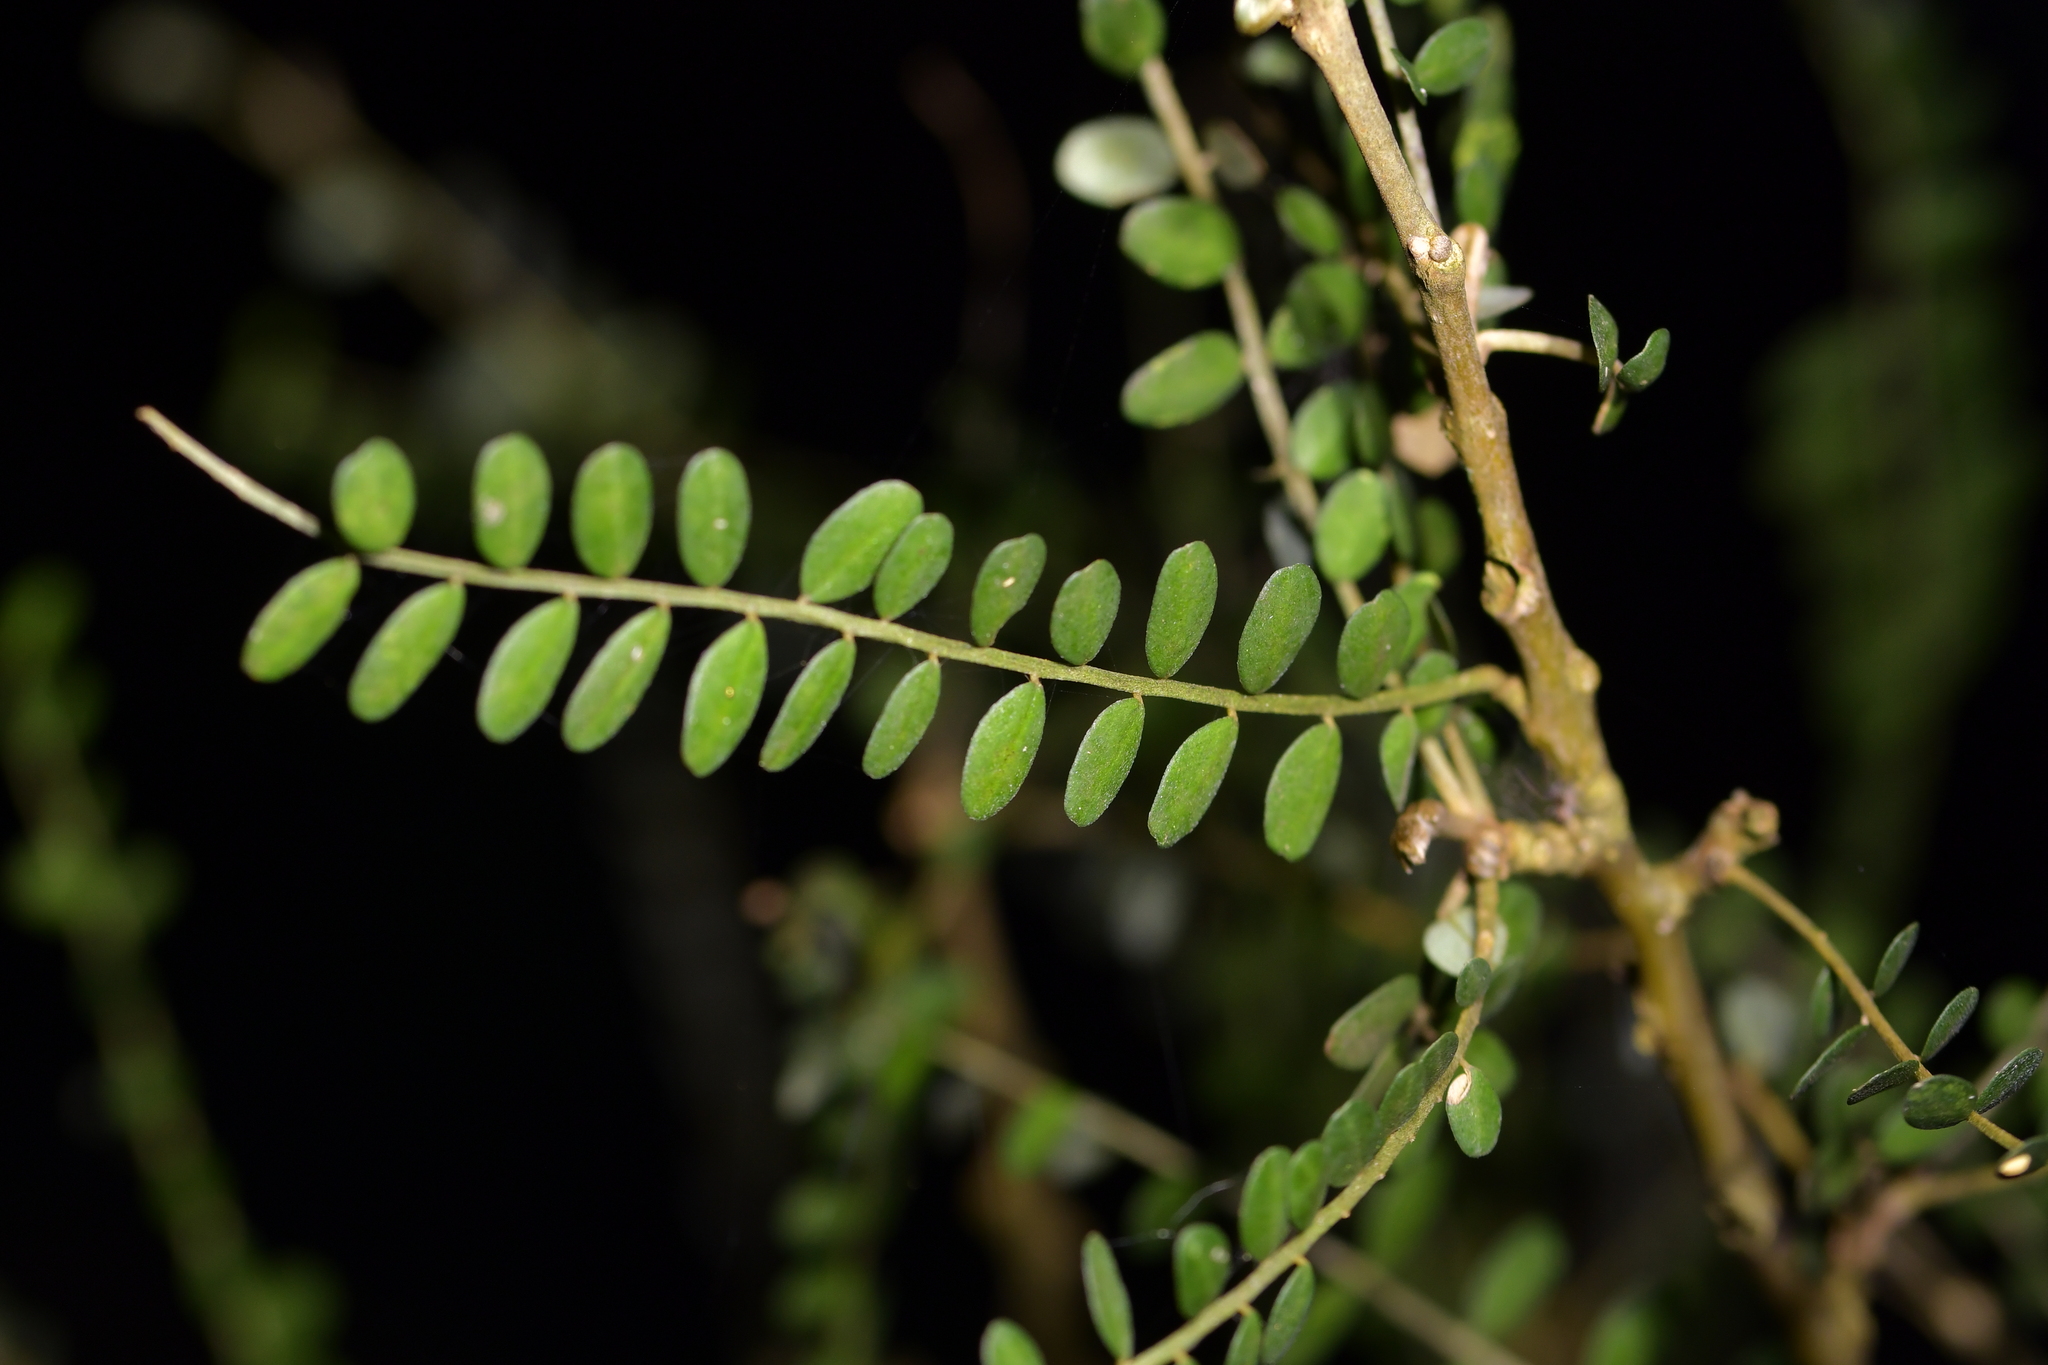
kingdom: Plantae
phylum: Tracheophyta
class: Magnoliopsida
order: Fabales
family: Fabaceae
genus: Sophora
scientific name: Sophora microphylla
